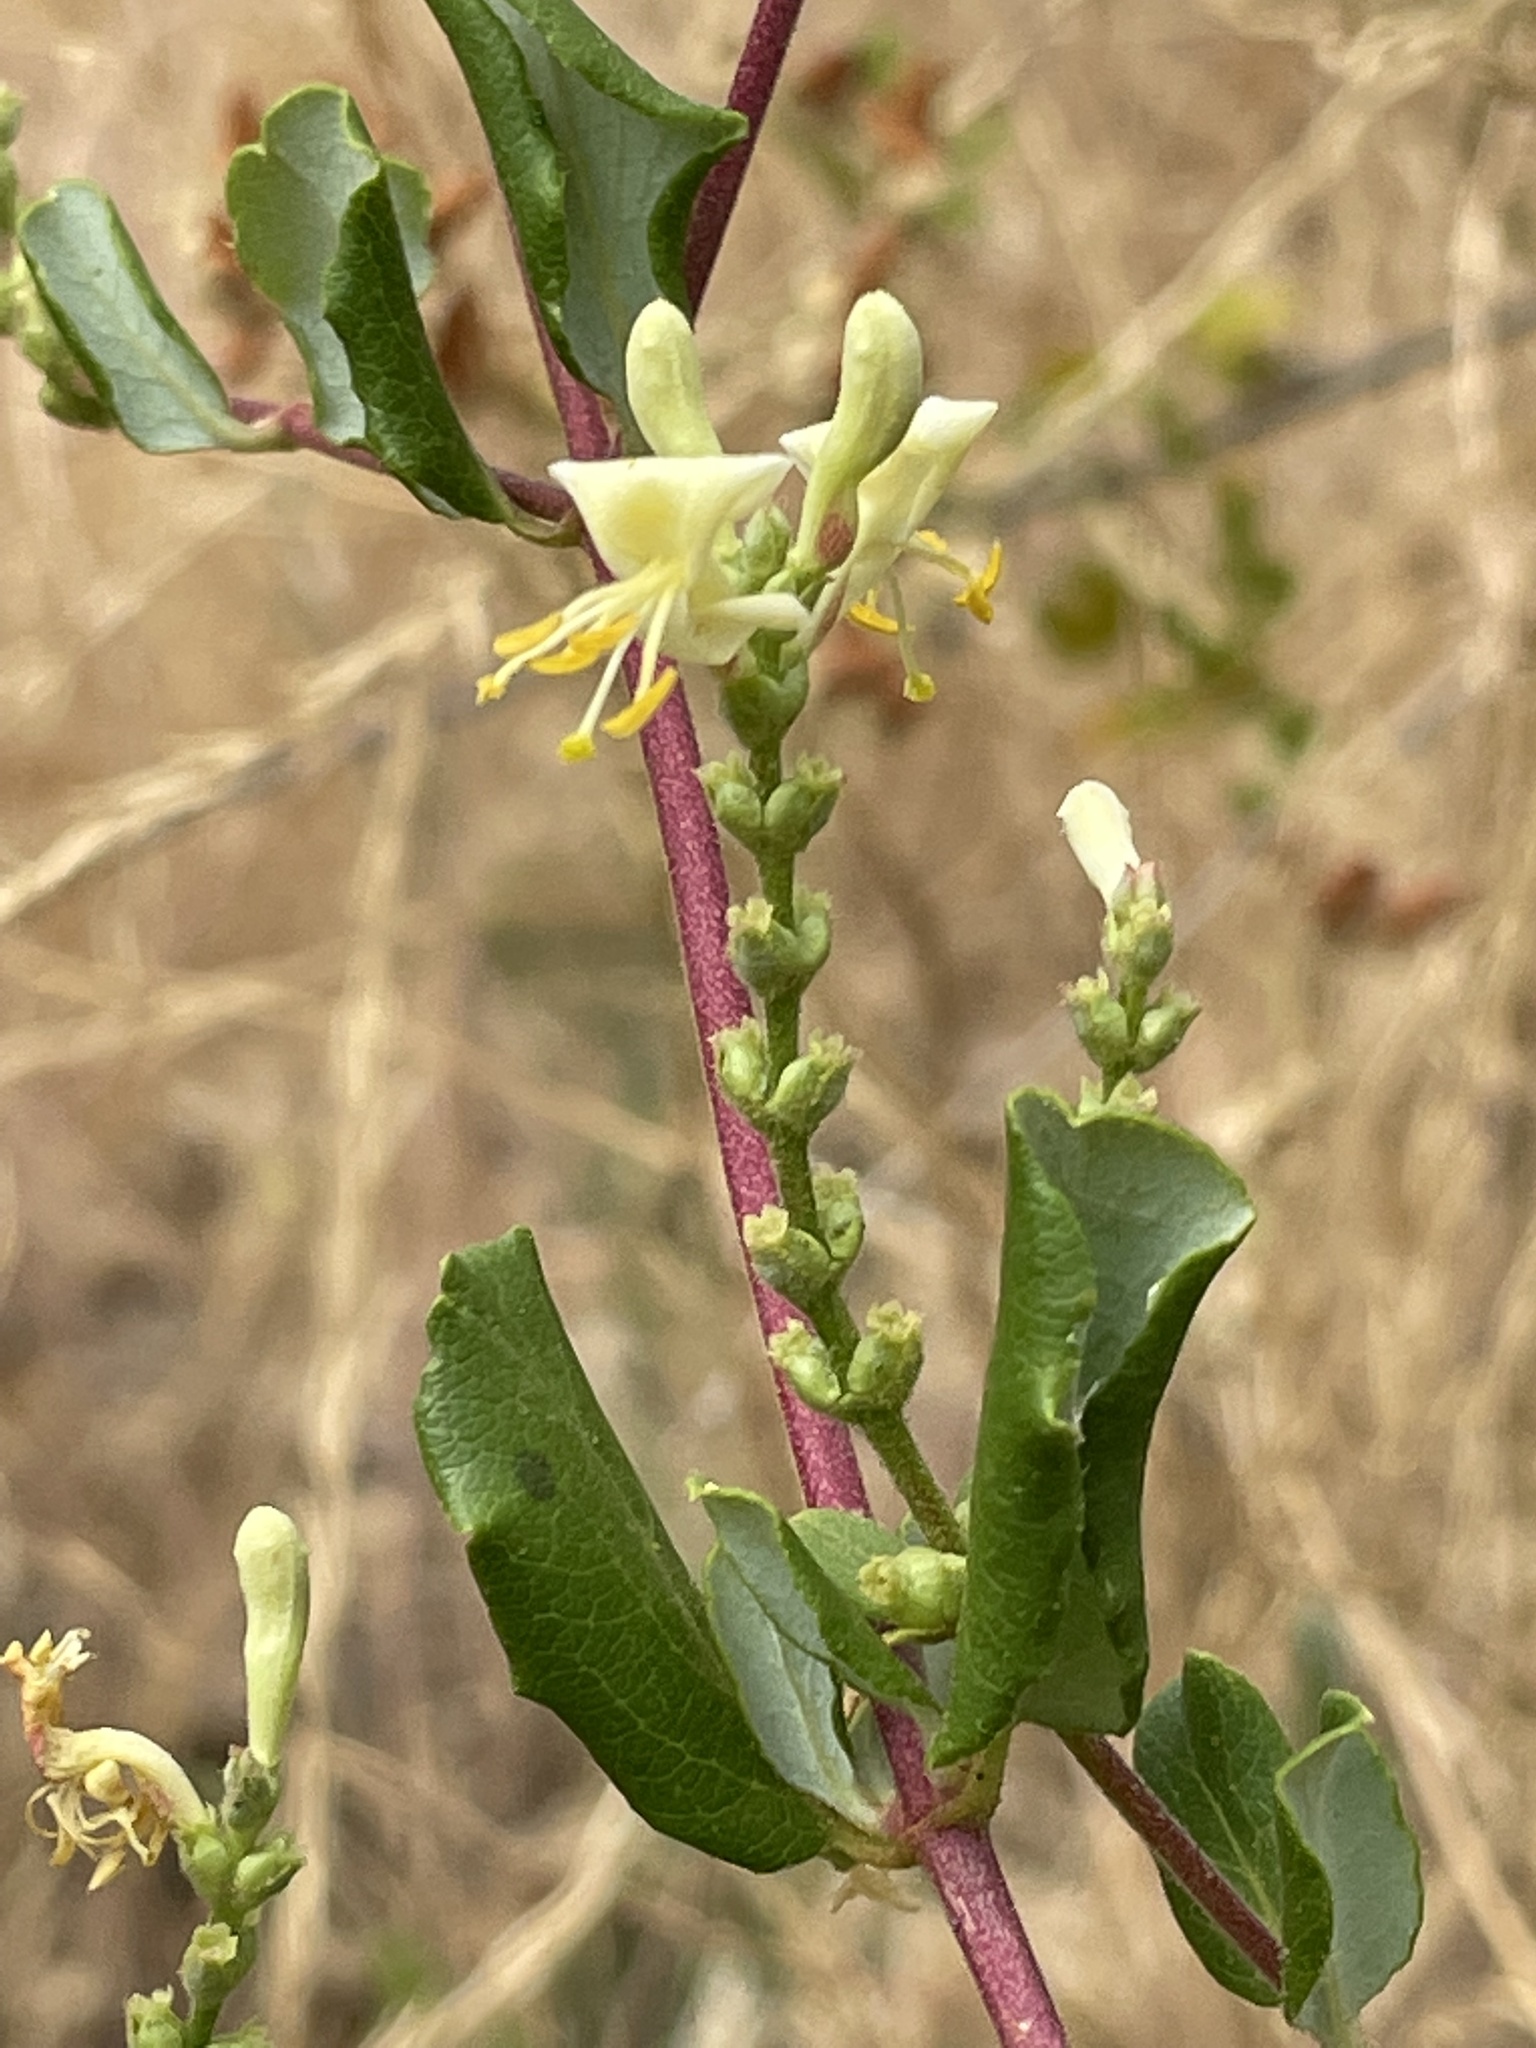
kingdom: Plantae
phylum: Tracheophyta
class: Magnoliopsida
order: Dipsacales
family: Caprifoliaceae
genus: Lonicera
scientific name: Lonicera subspicata
